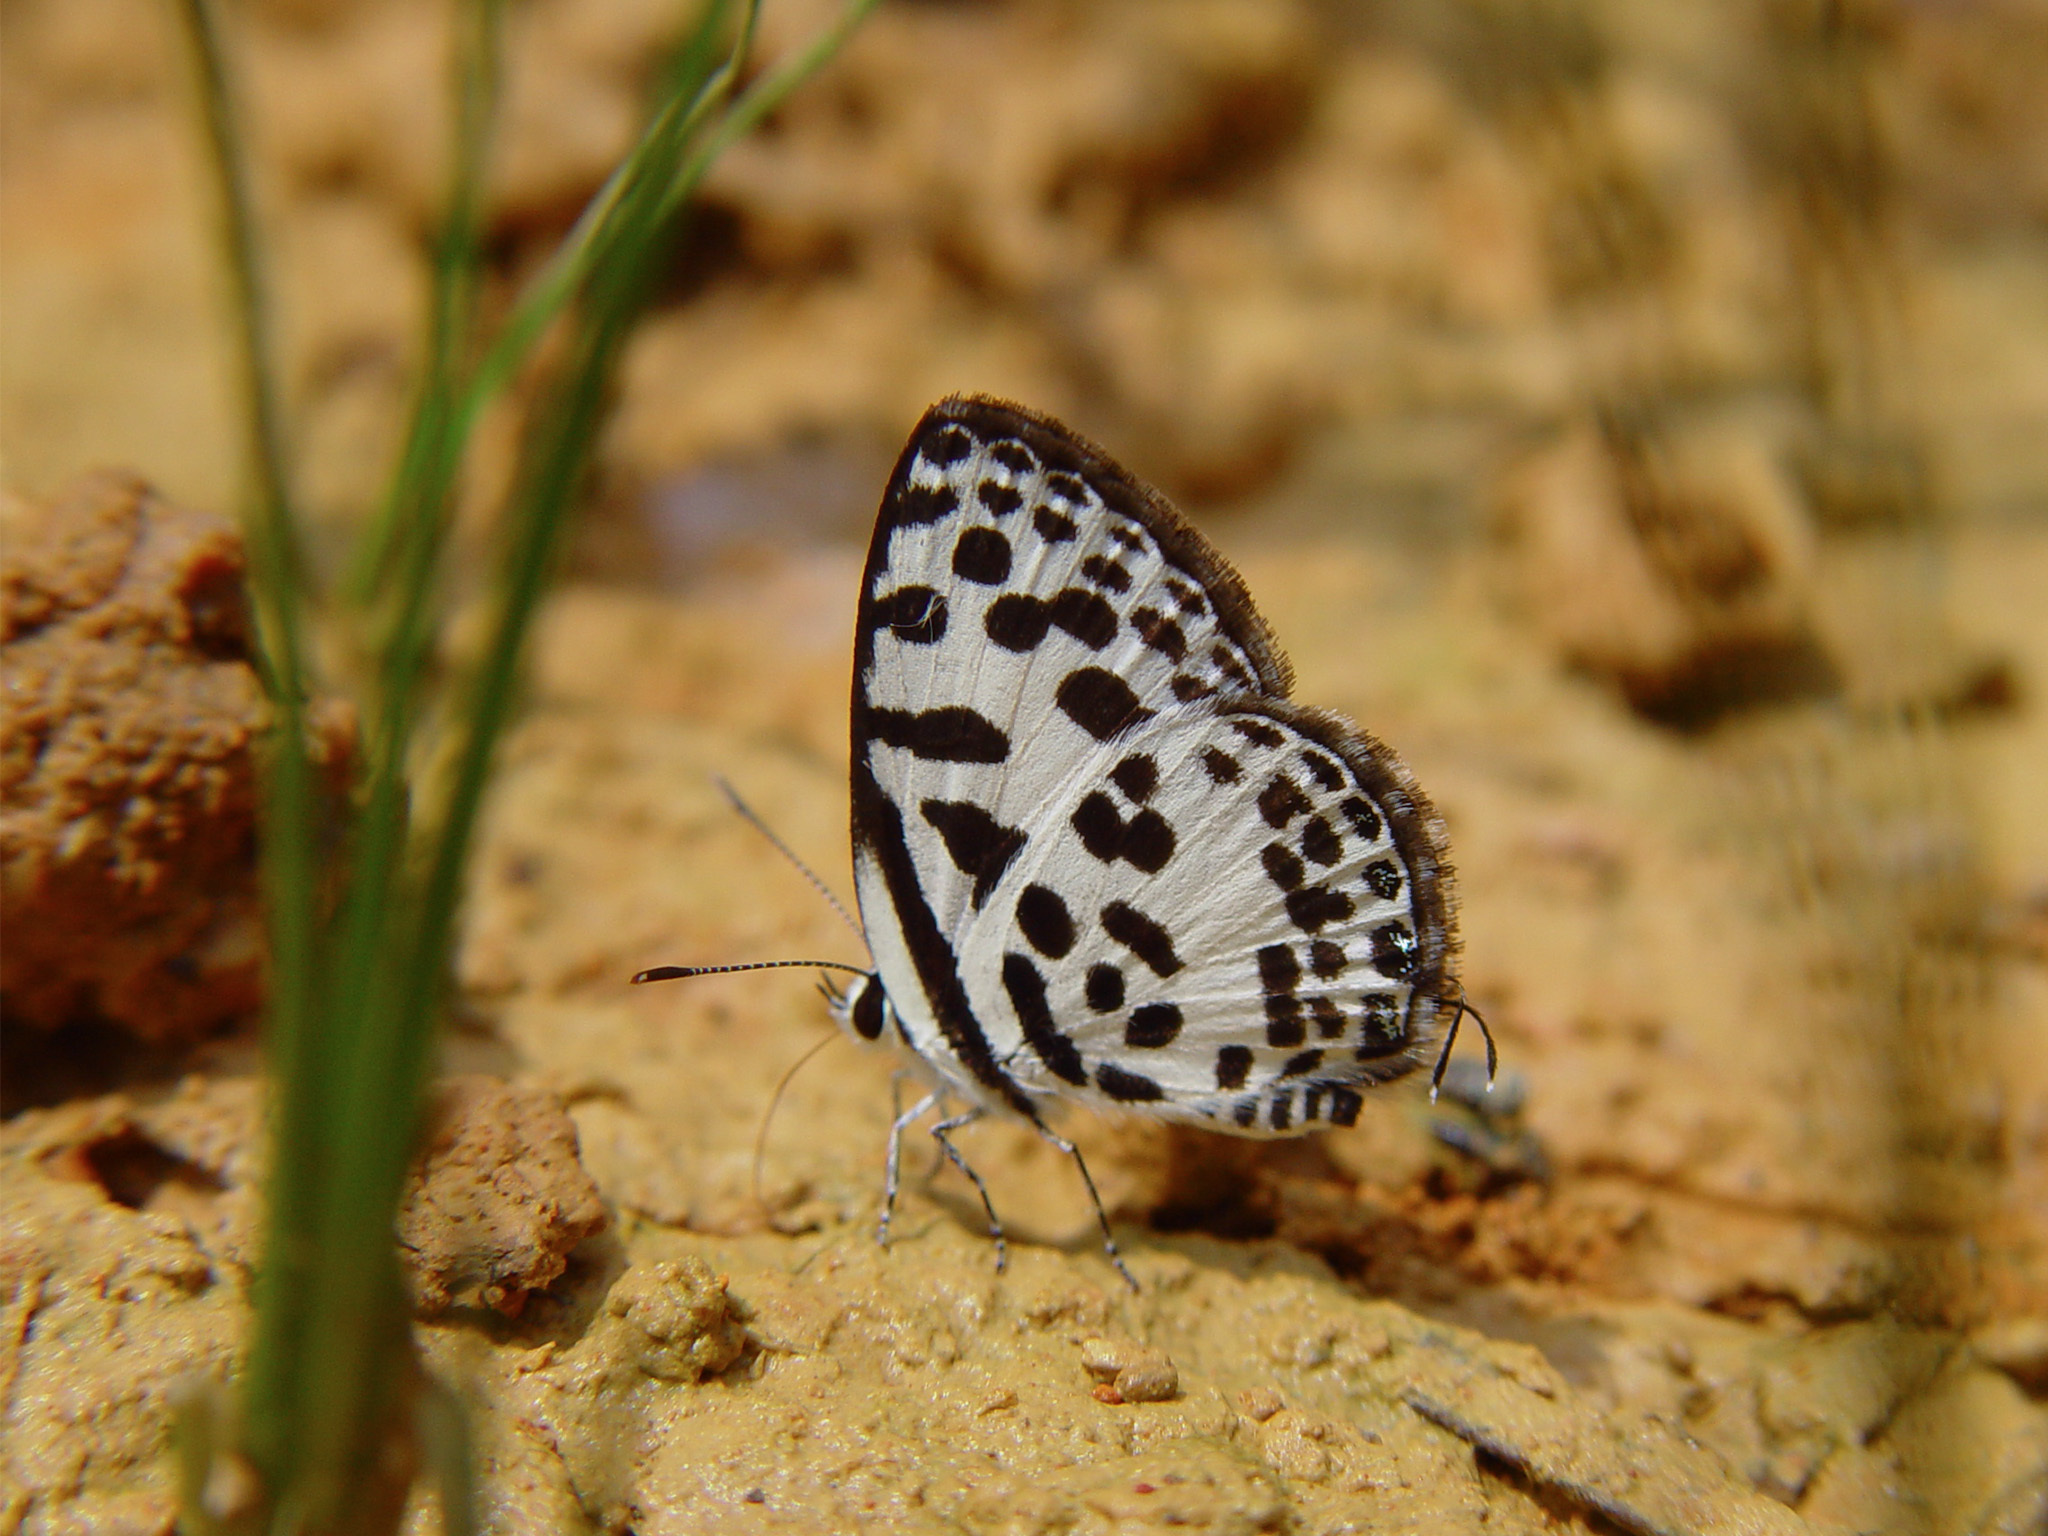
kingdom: Animalia
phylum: Arthropoda
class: Insecta
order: Lepidoptera
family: Lycaenidae
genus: Castalius
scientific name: Castalius rosimon
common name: Common pierrot
